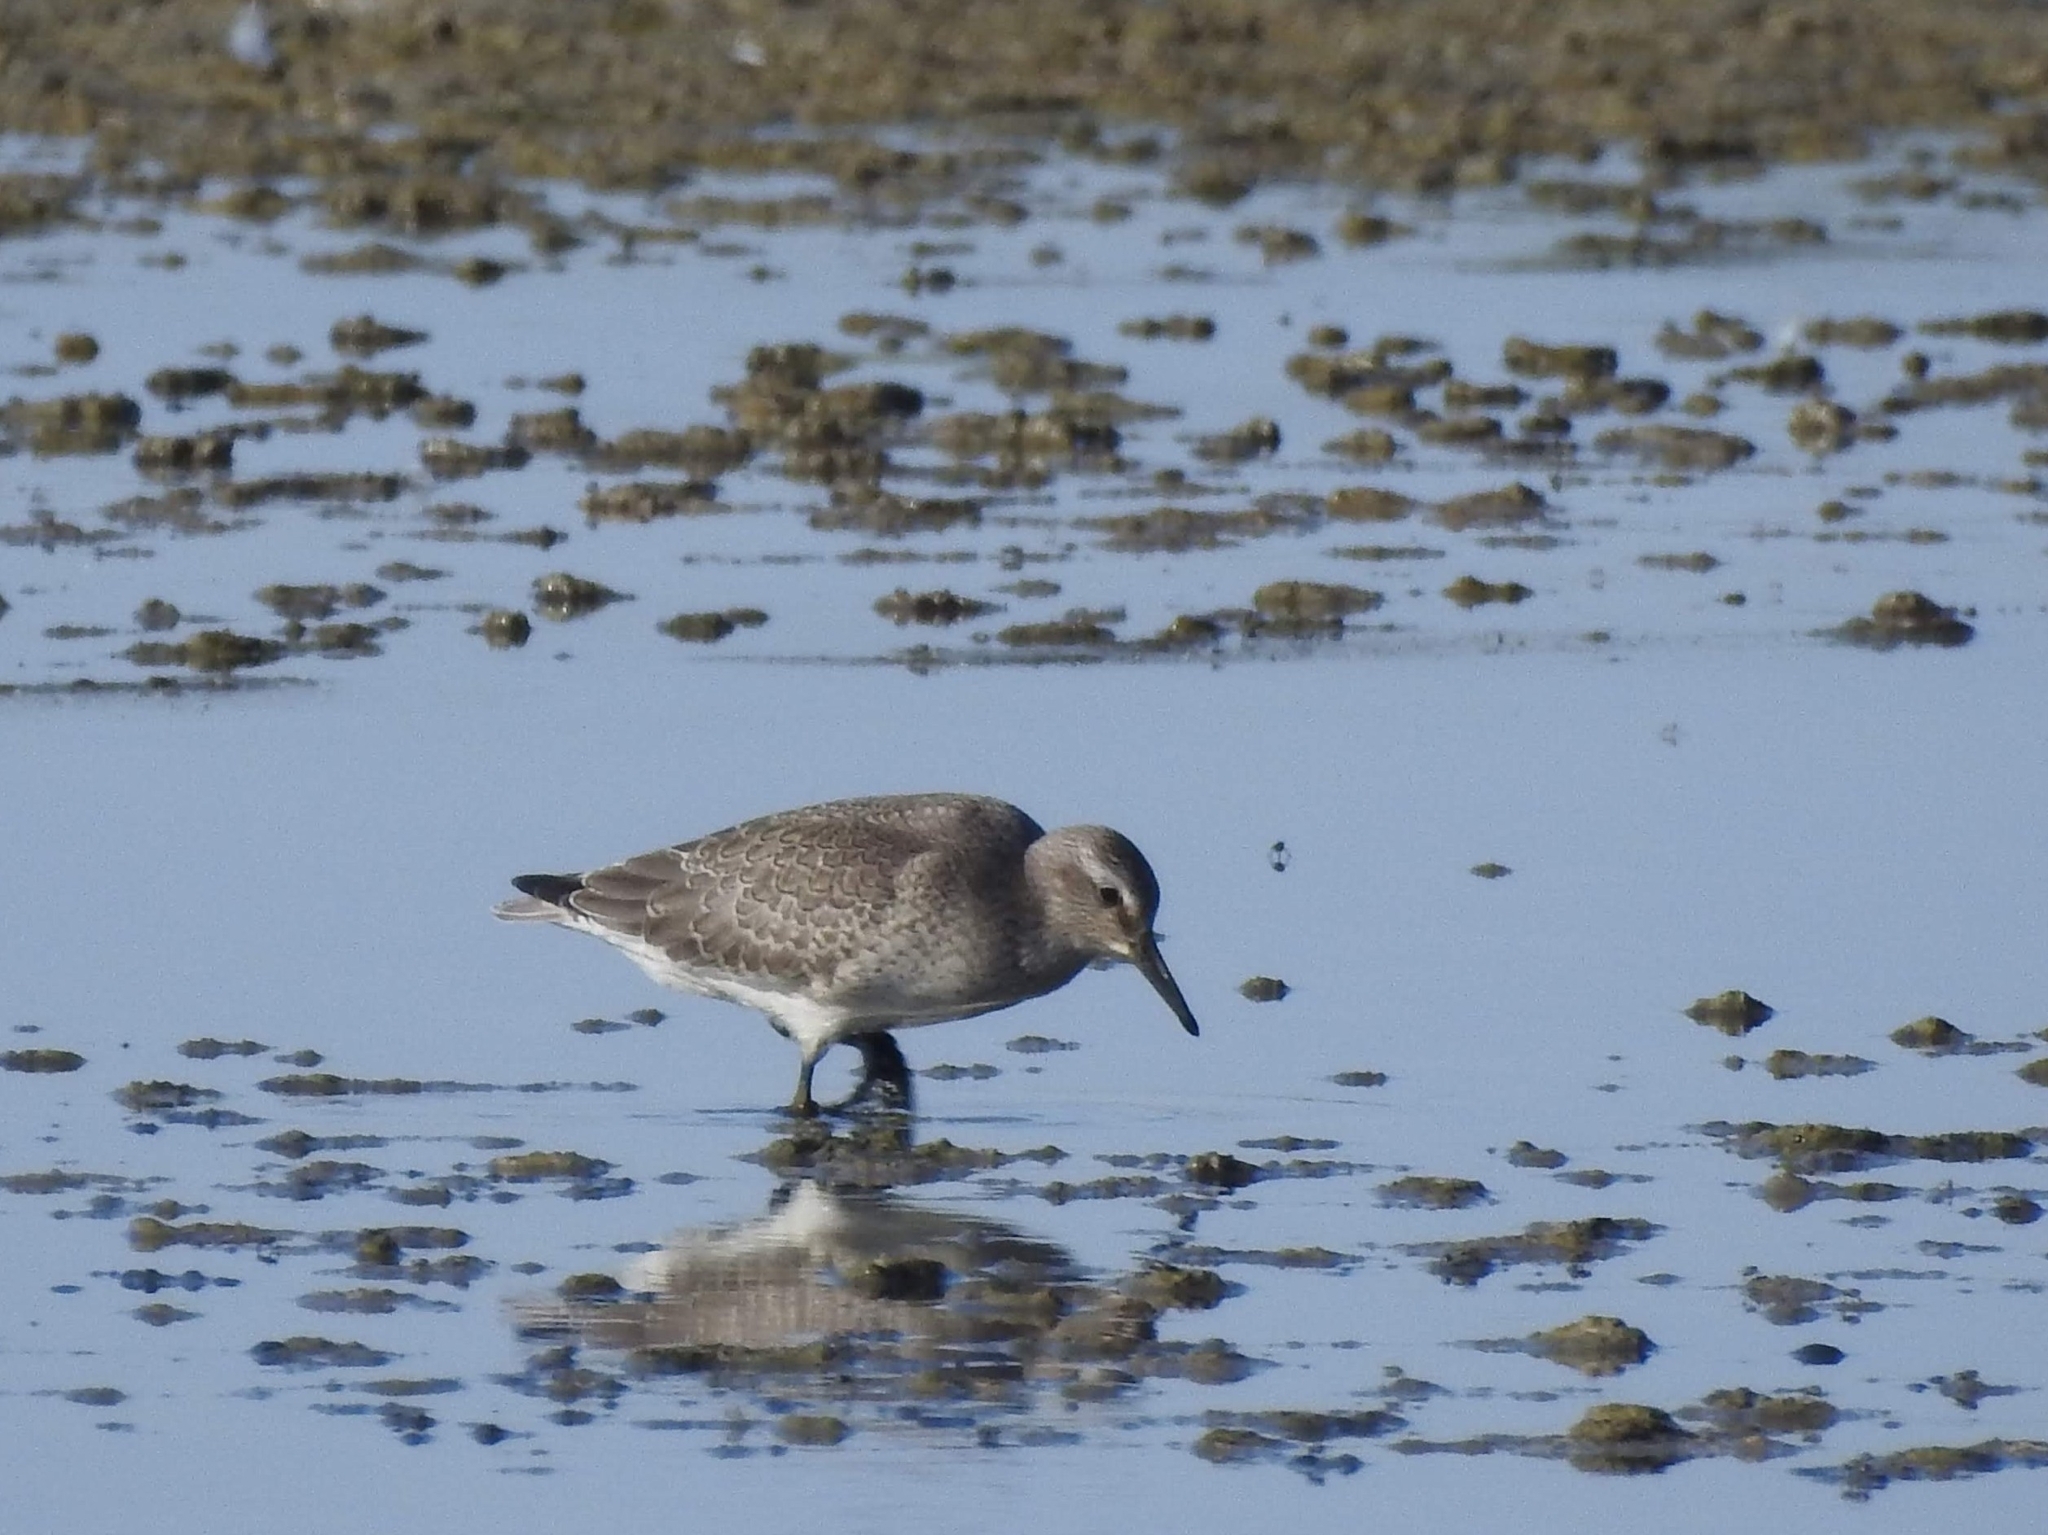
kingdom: Animalia
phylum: Chordata
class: Aves
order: Charadriiformes
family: Scolopacidae
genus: Calidris
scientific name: Calidris canutus
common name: Red knot
